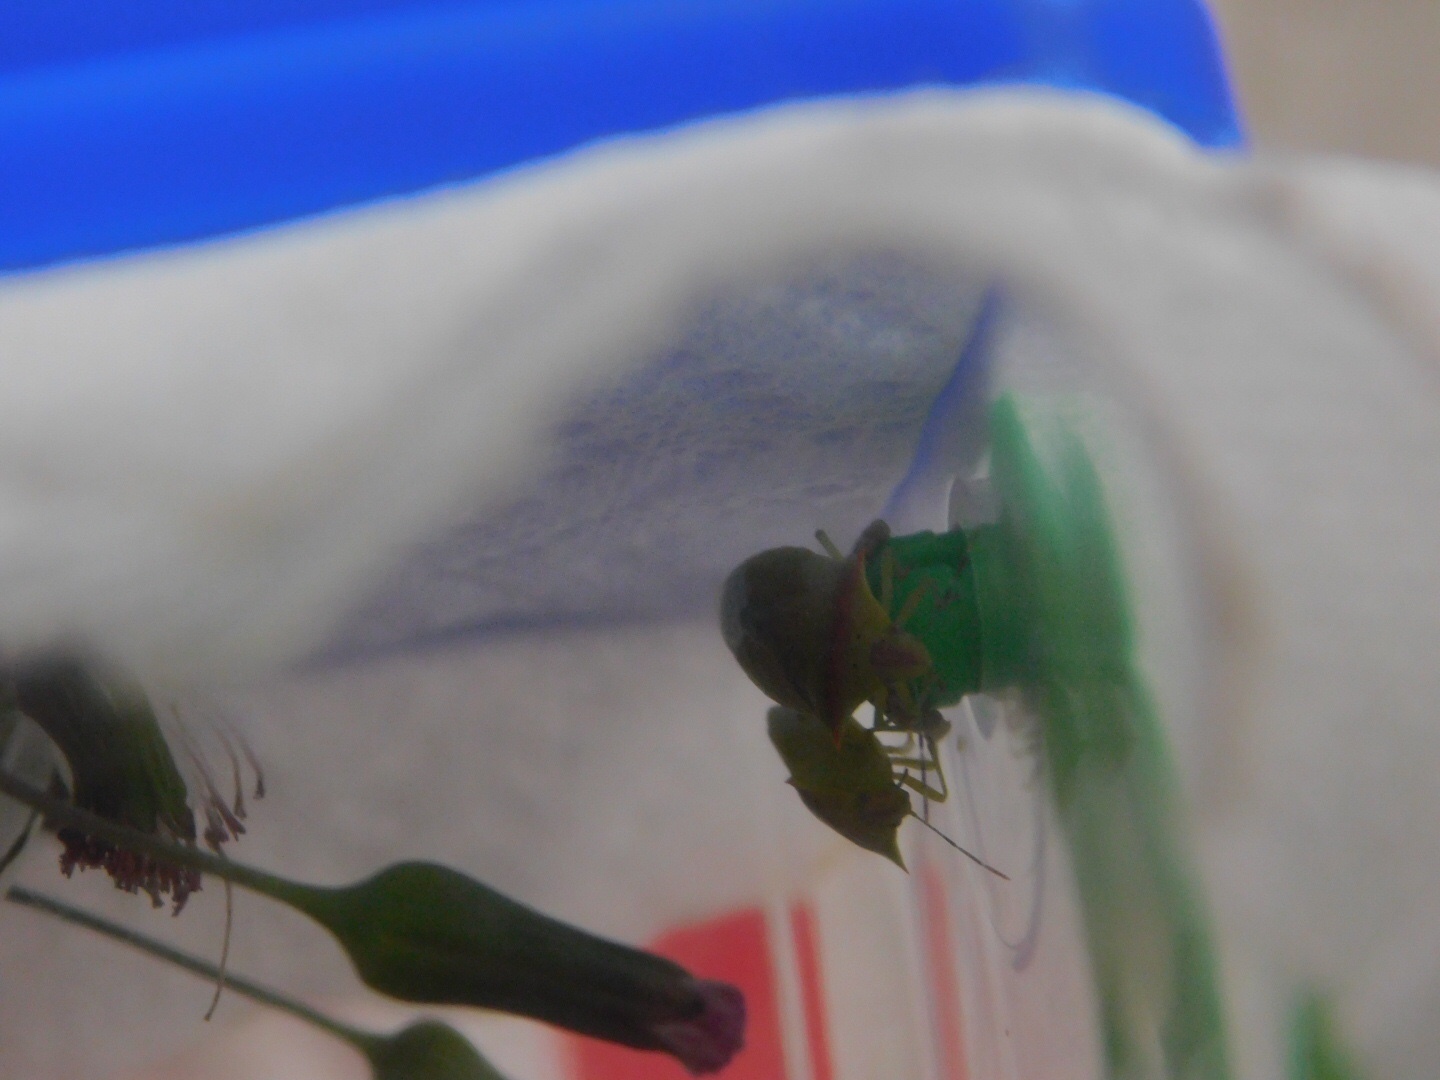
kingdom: Animalia
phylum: Arthropoda
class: Insecta
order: Hemiptera
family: Pentatomidae
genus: Thyanta
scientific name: Thyanta perditor
